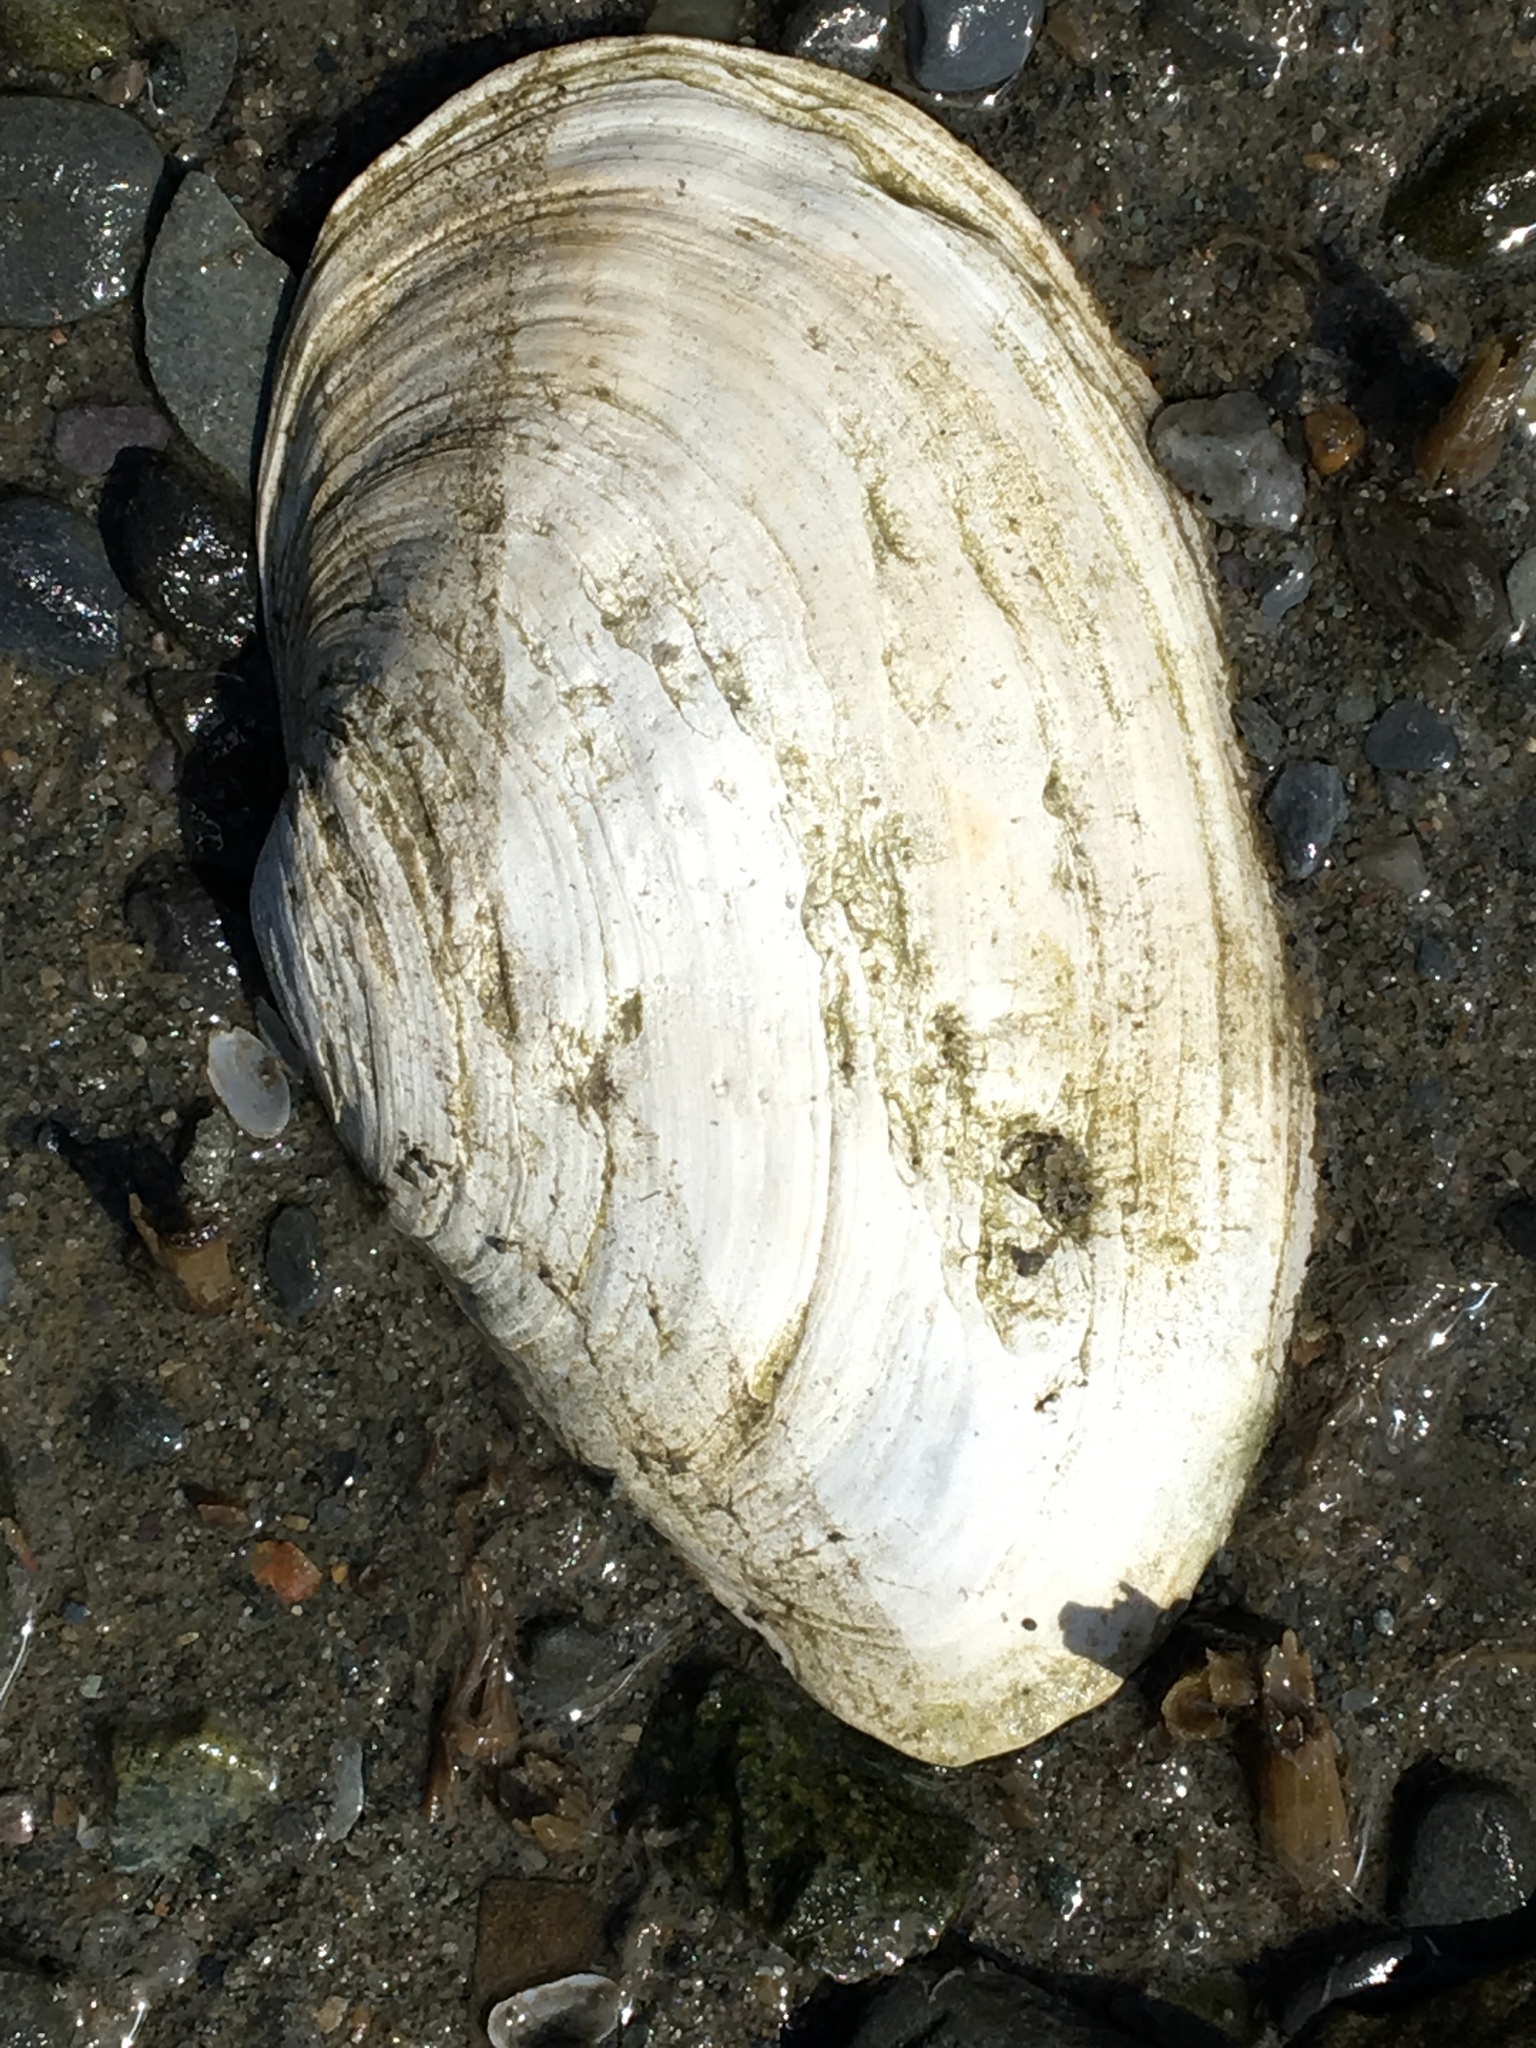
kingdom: Animalia
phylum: Mollusca
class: Bivalvia
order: Myida
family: Myidae
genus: Mya
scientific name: Mya arenaria
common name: Soft-shelled clam
